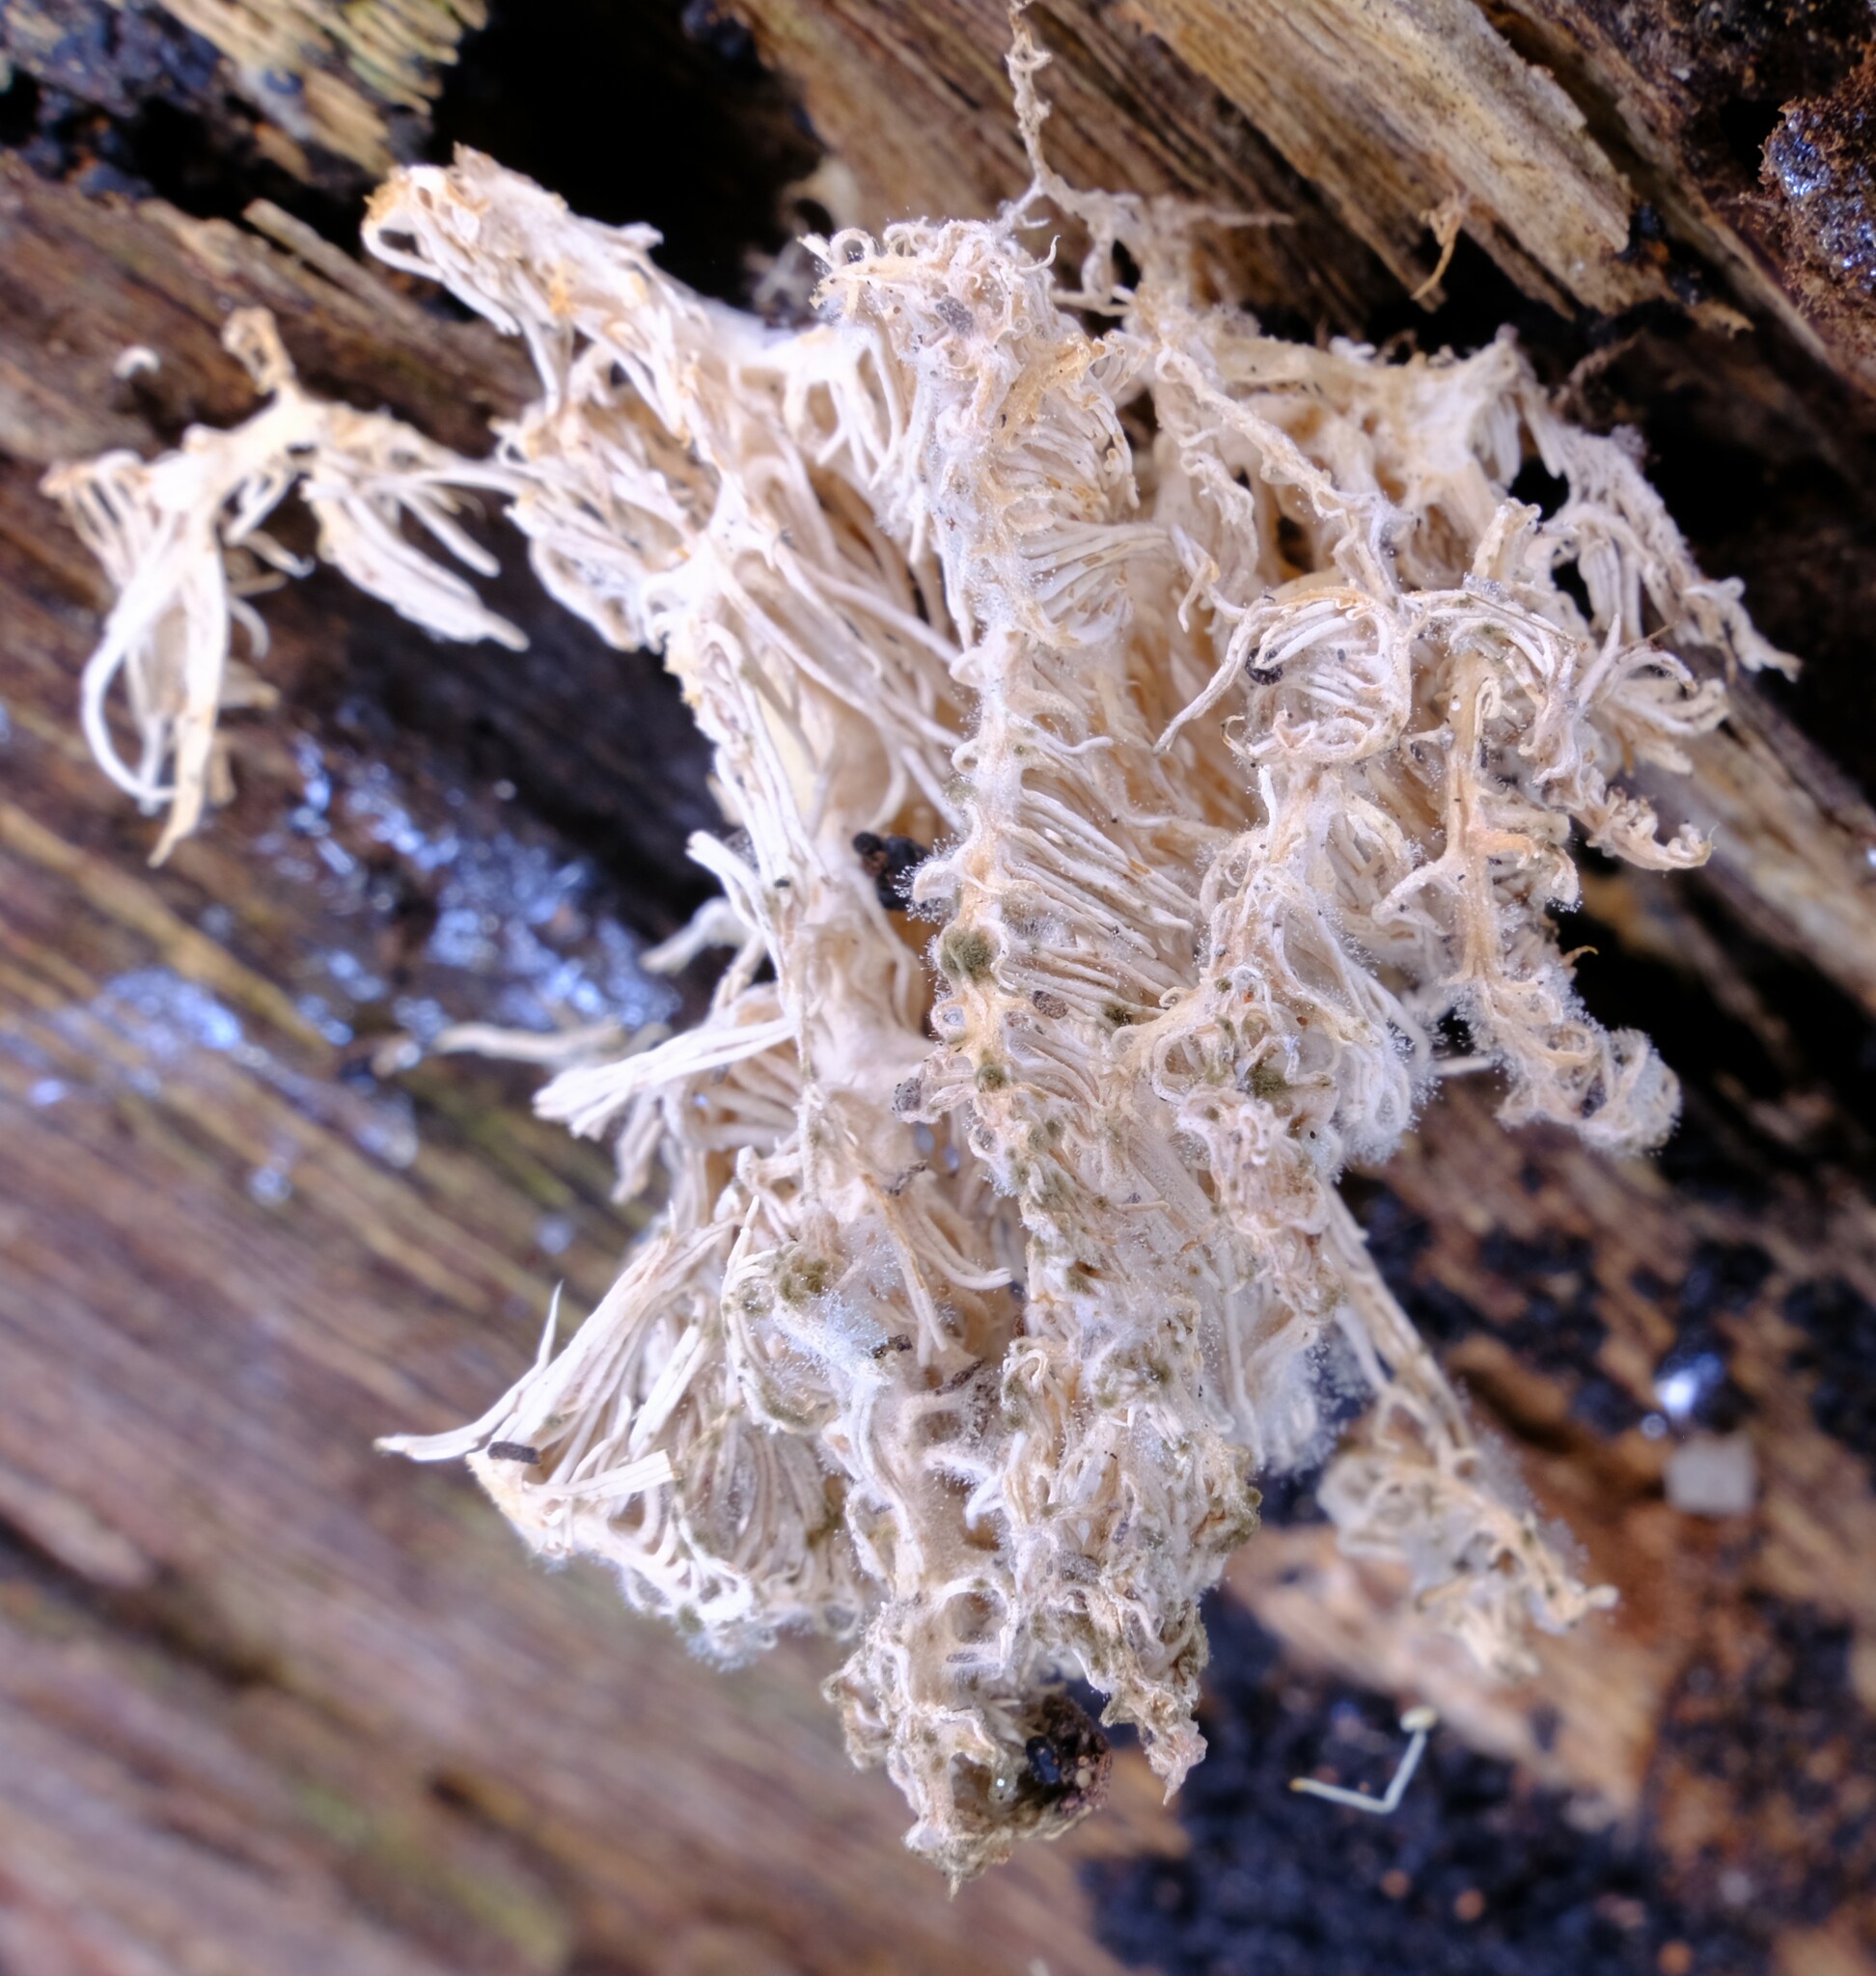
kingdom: Fungi
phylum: Basidiomycota
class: Agaricomycetes
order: Russulales
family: Hericiaceae
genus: Hericium
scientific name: Hericium coralloides
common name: Coral tooth
